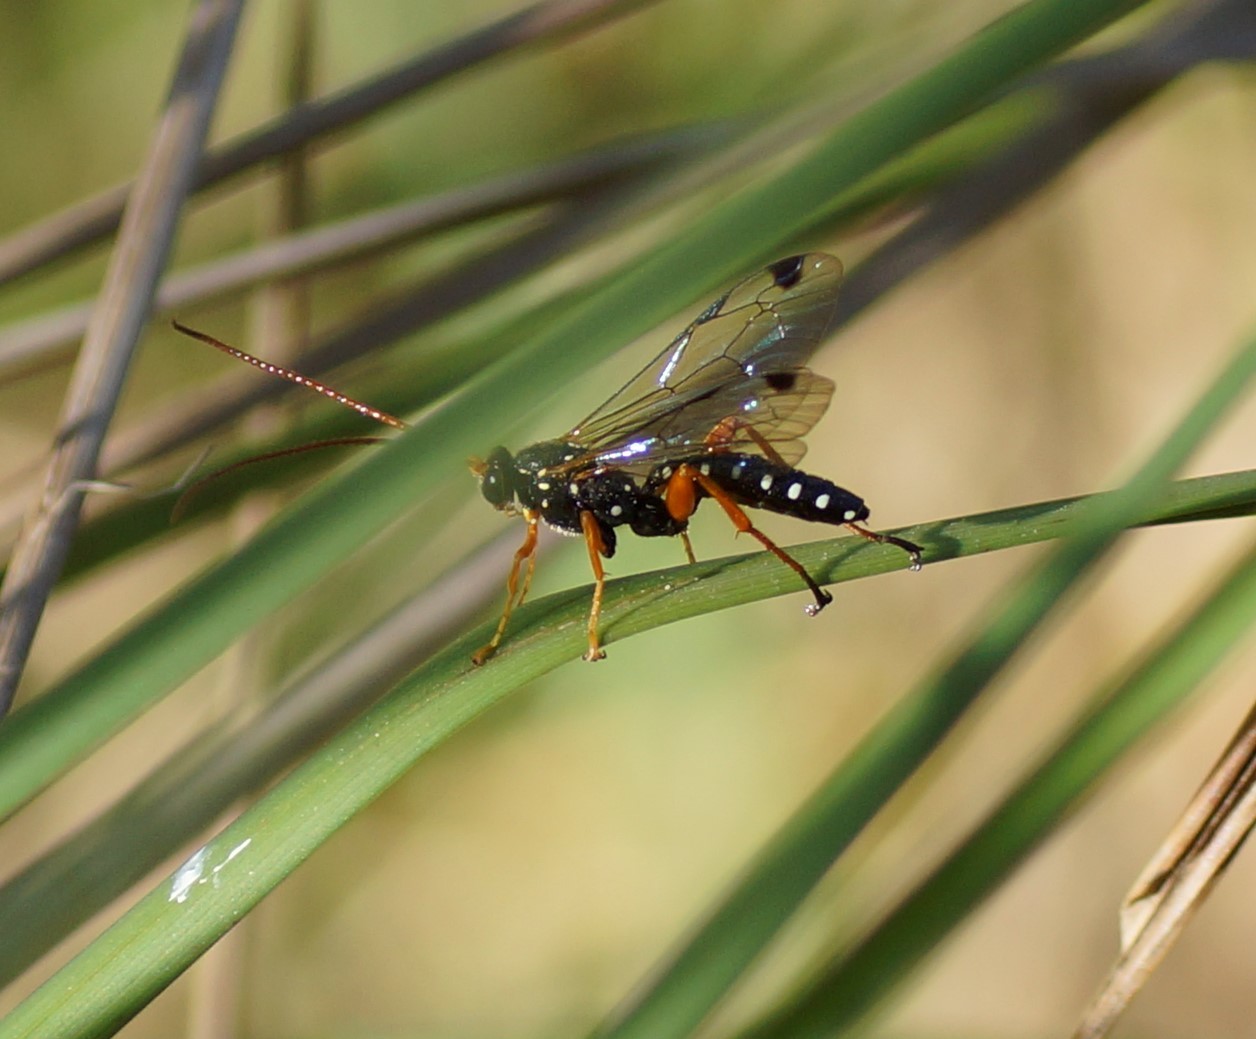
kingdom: Animalia
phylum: Arthropoda
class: Insecta
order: Hymenoptera
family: Ichneumonidae
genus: Echthromorpha
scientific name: Echthromorpha intricatoria
